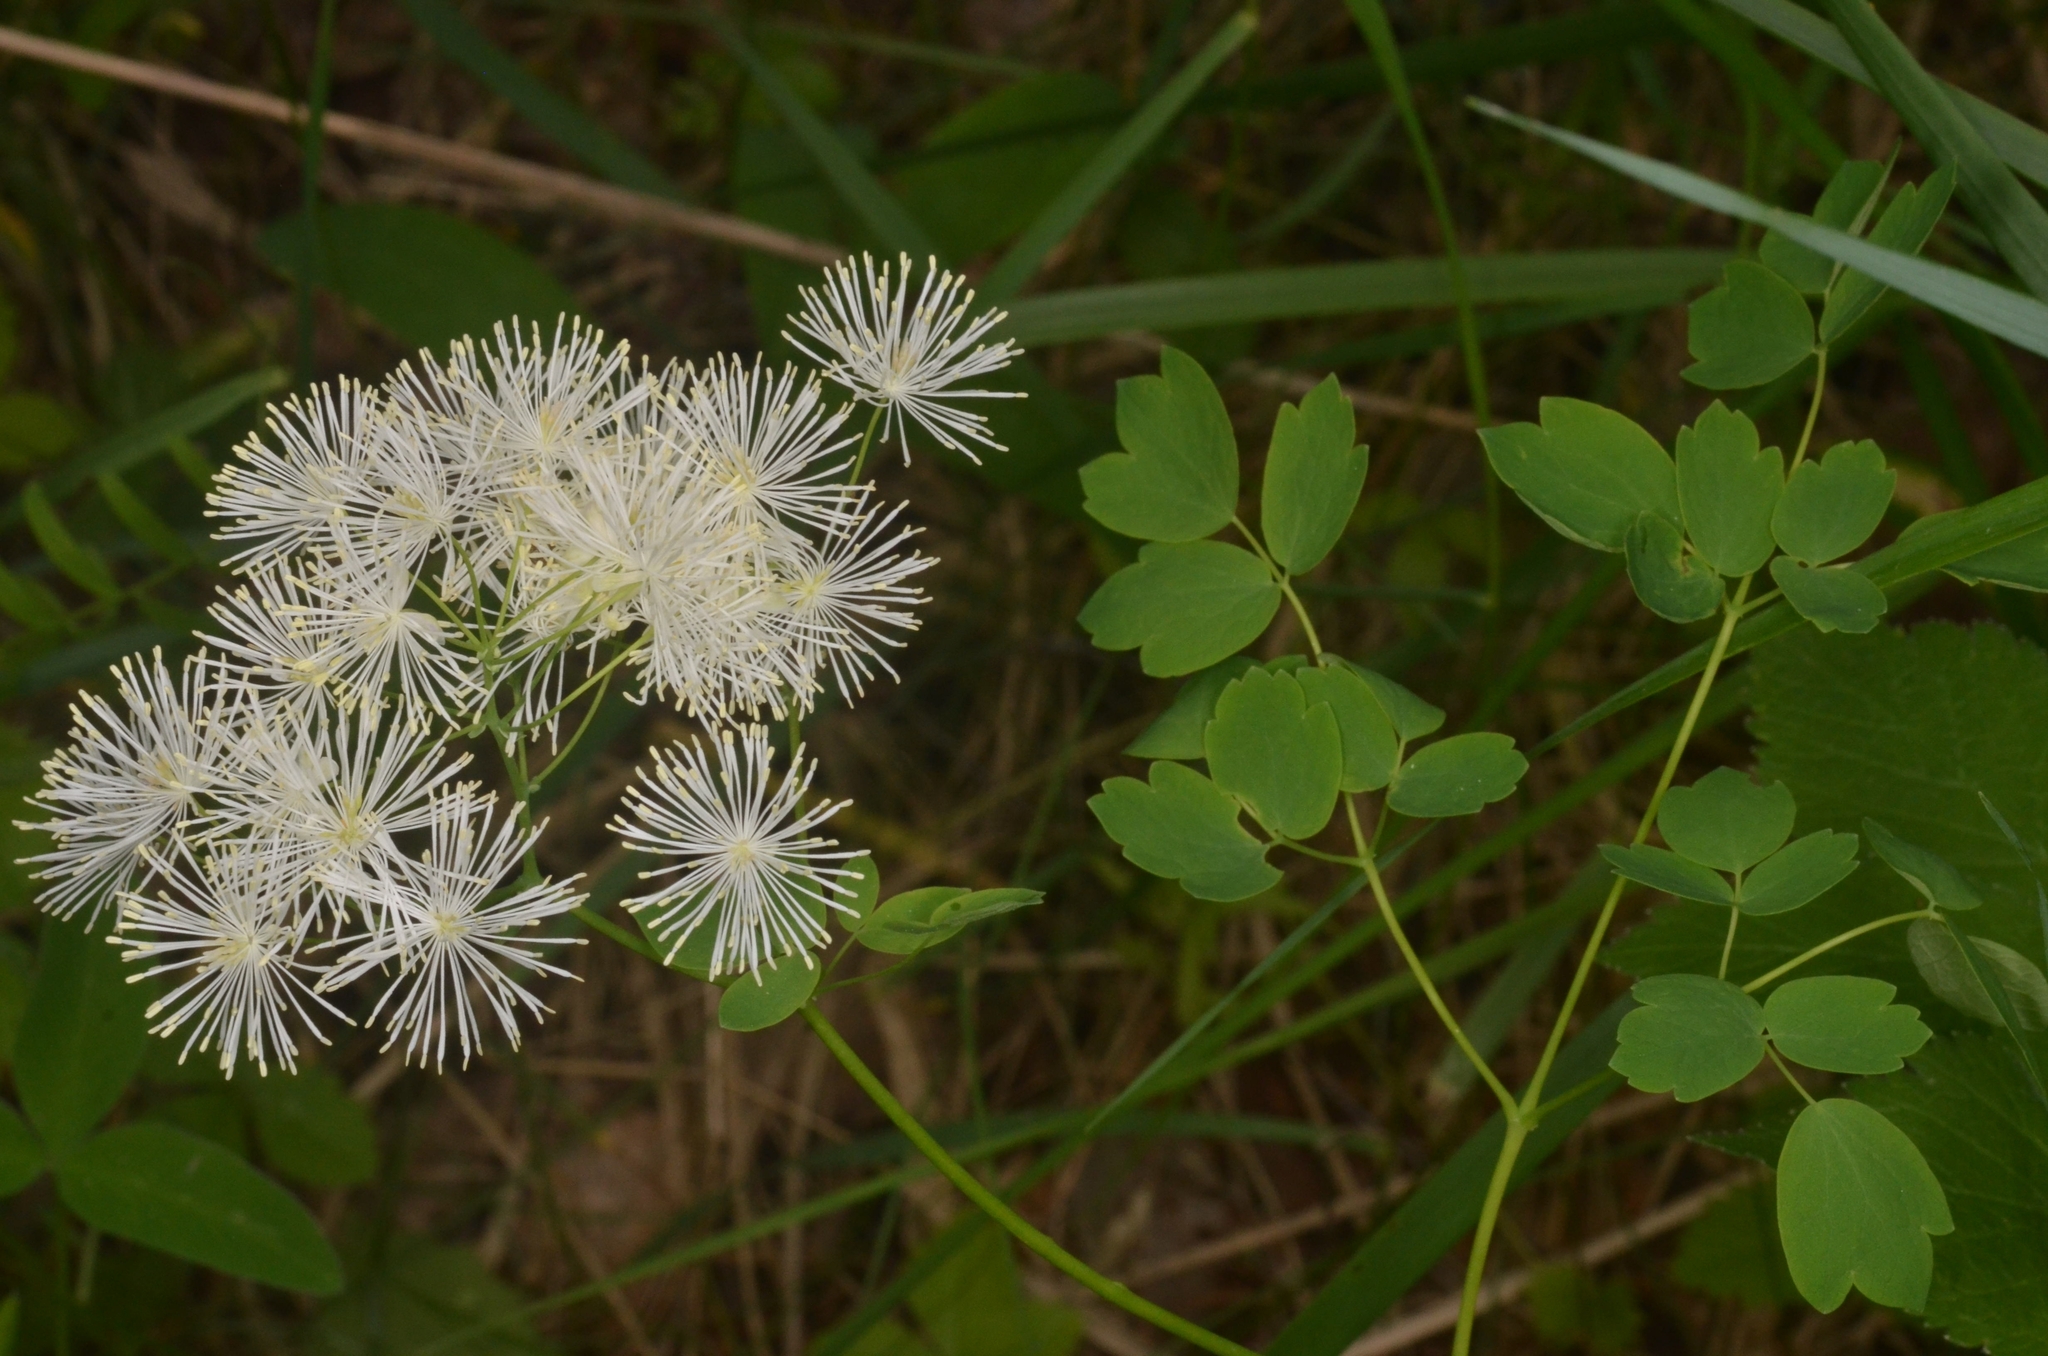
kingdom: Plantae
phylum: Tracheophyta
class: Magnoliopsida
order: Ranunculales
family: Ranunculaceae
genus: Thalictrum
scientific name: Thalictrum aquilegiifolium
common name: French meadow-rue
